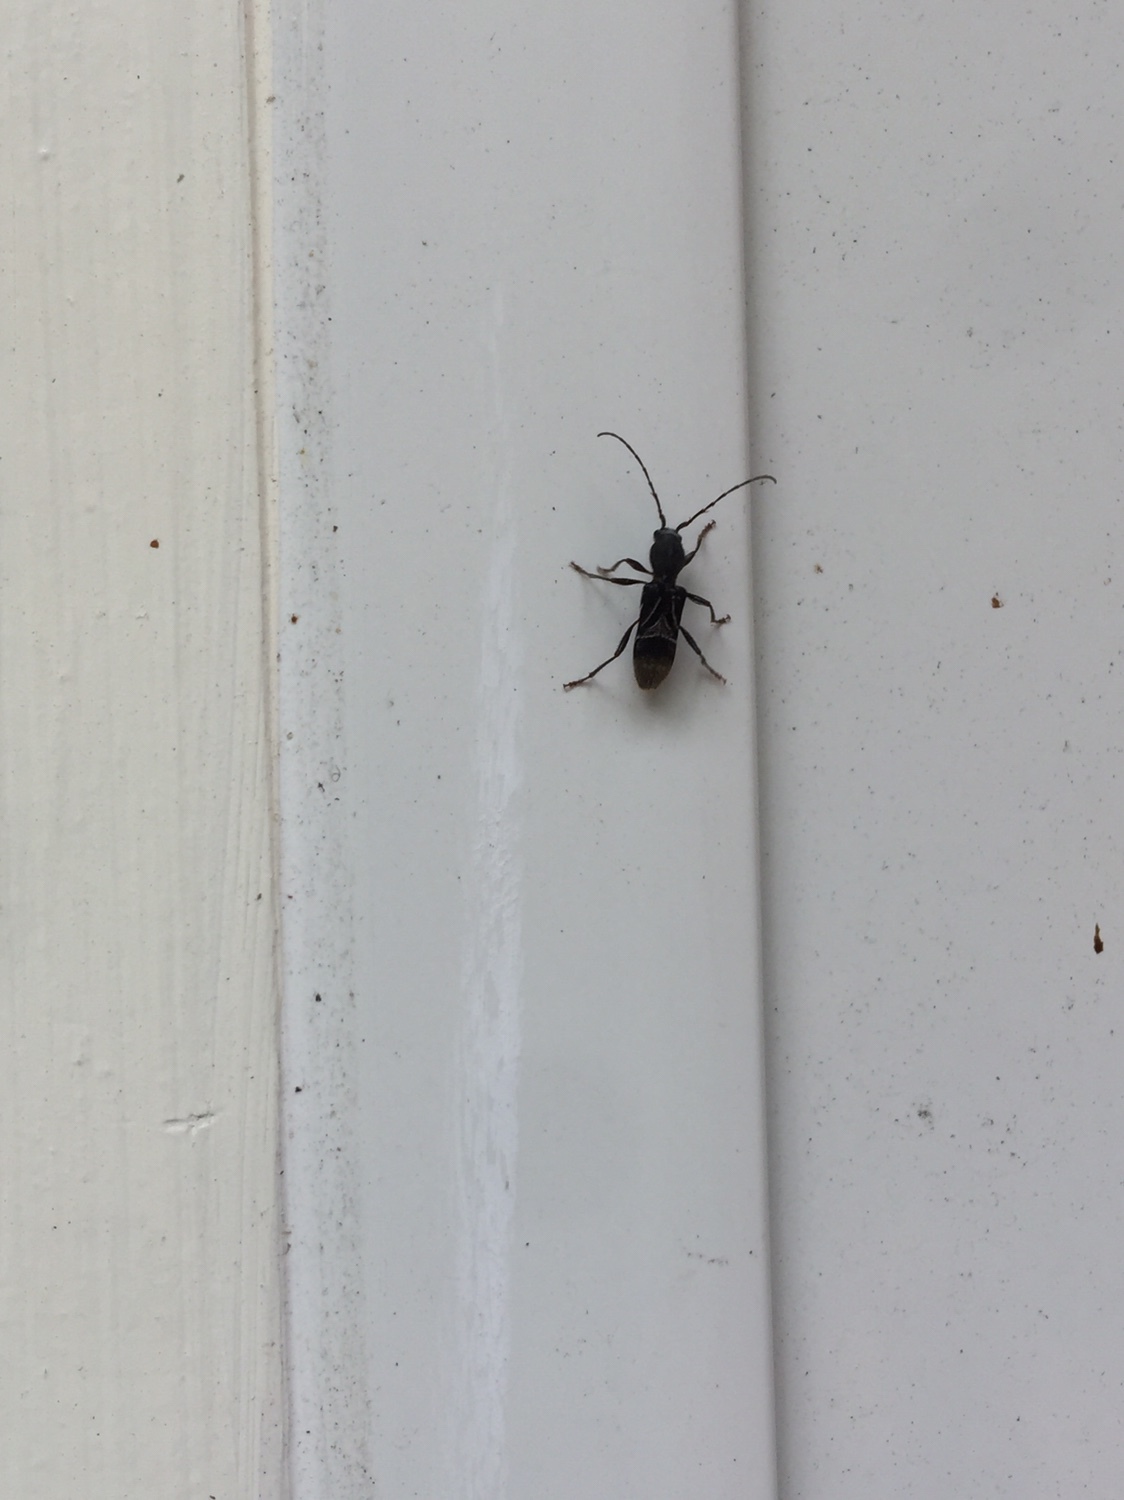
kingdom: Animalia
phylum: Arthropoda
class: Insecta
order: Coleoptera
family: Cerambycidae
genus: Cyrtophorus
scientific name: Cyrtophorus verrucosus
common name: Ant-like longhorn beetle
